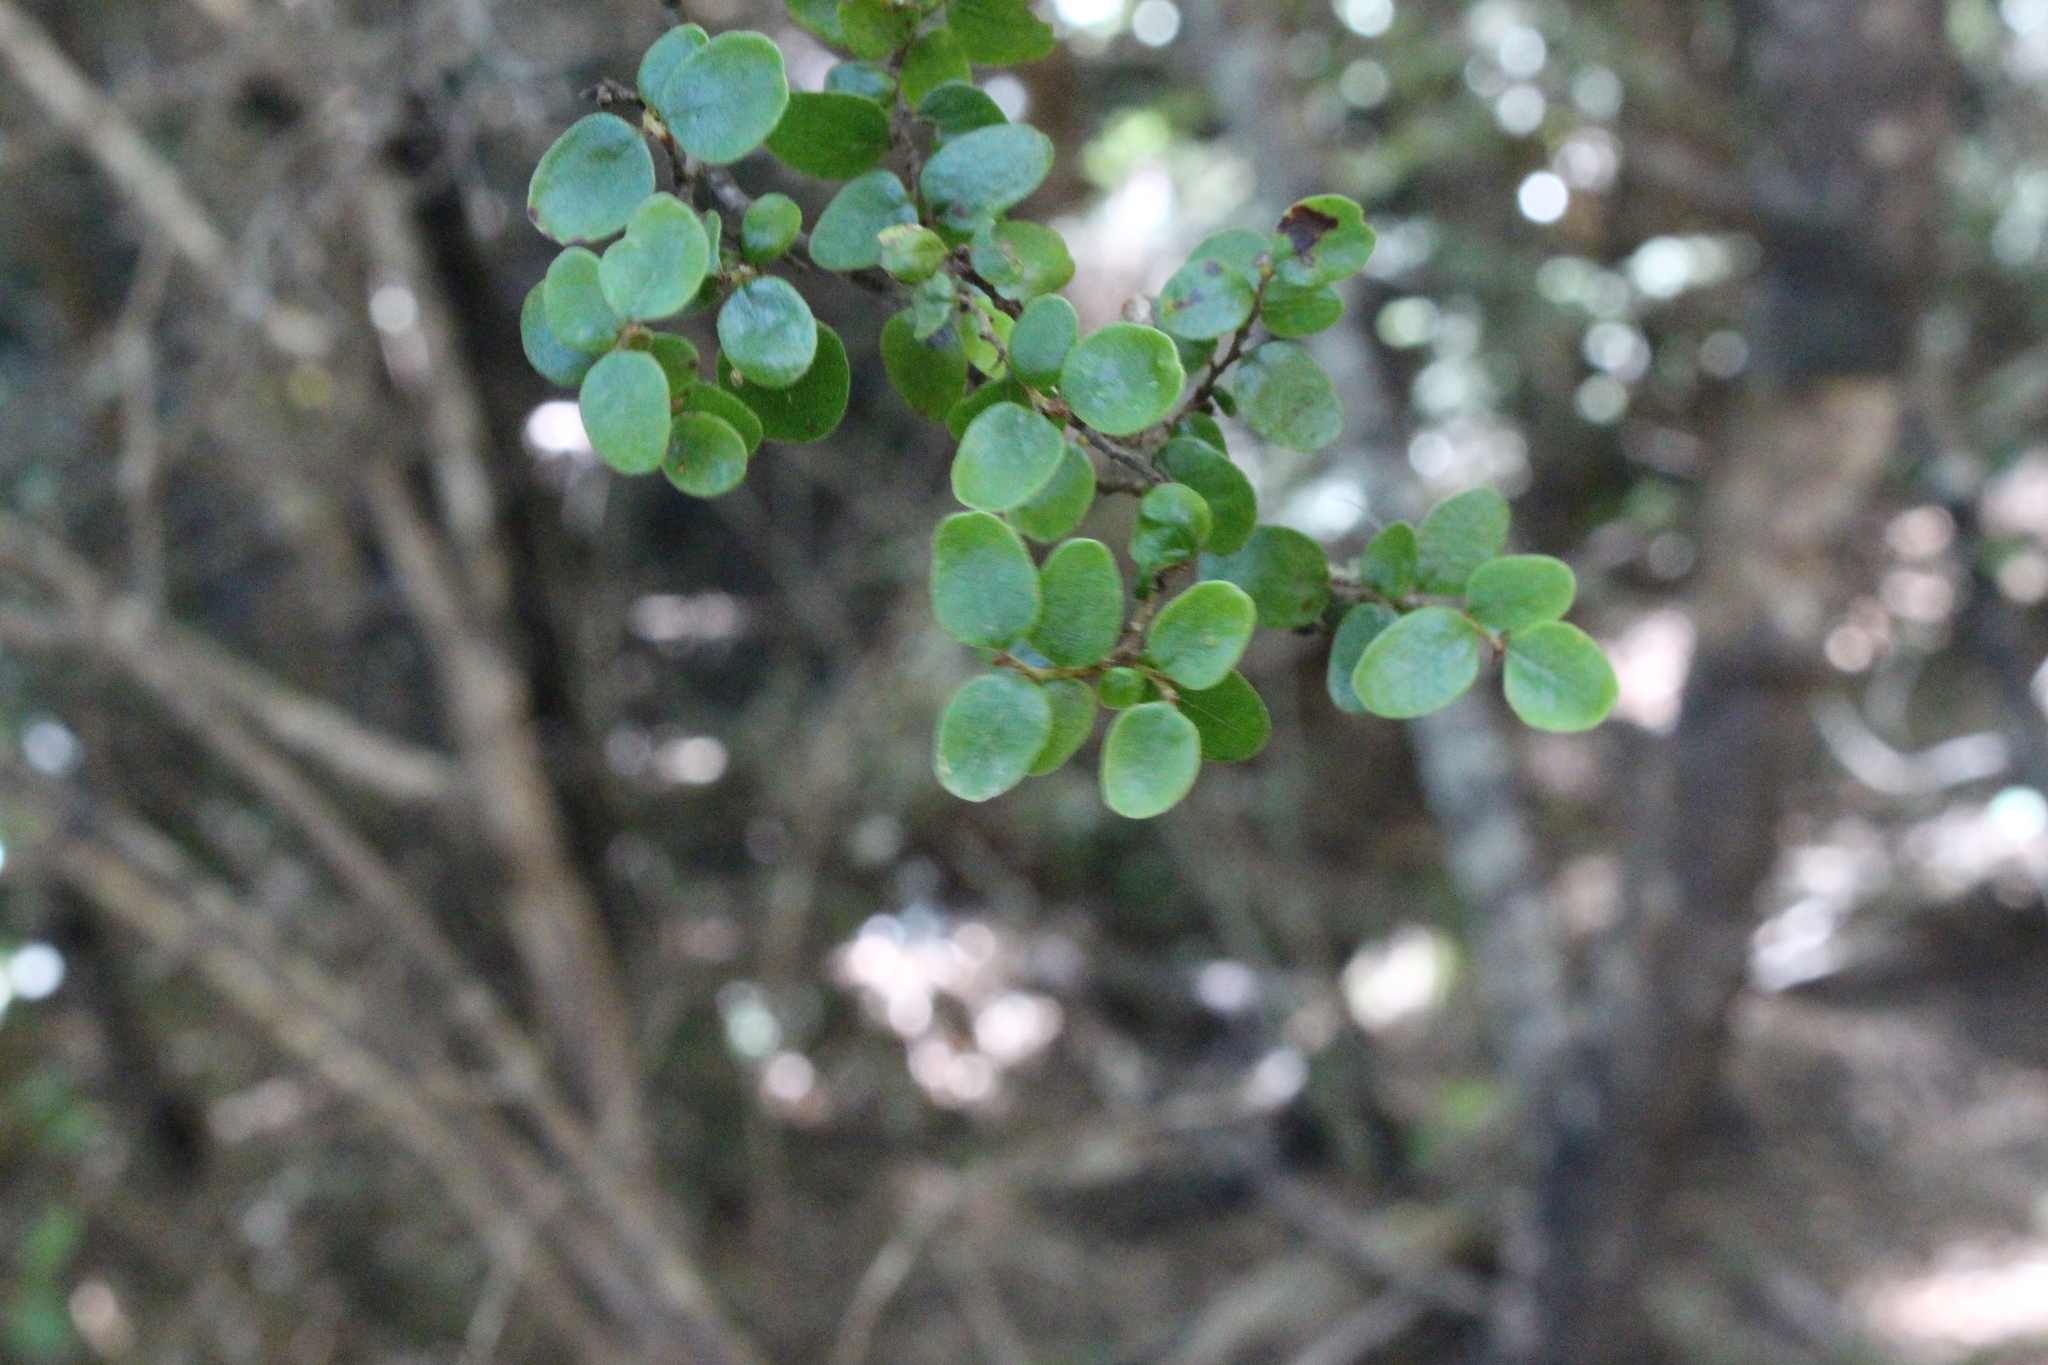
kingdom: Plantae
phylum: Tracheophyta
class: Magnoliopsida
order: Fagales
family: Nothofagaceae
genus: Nothofagus
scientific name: Nothofagus solandri
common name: Black beech
